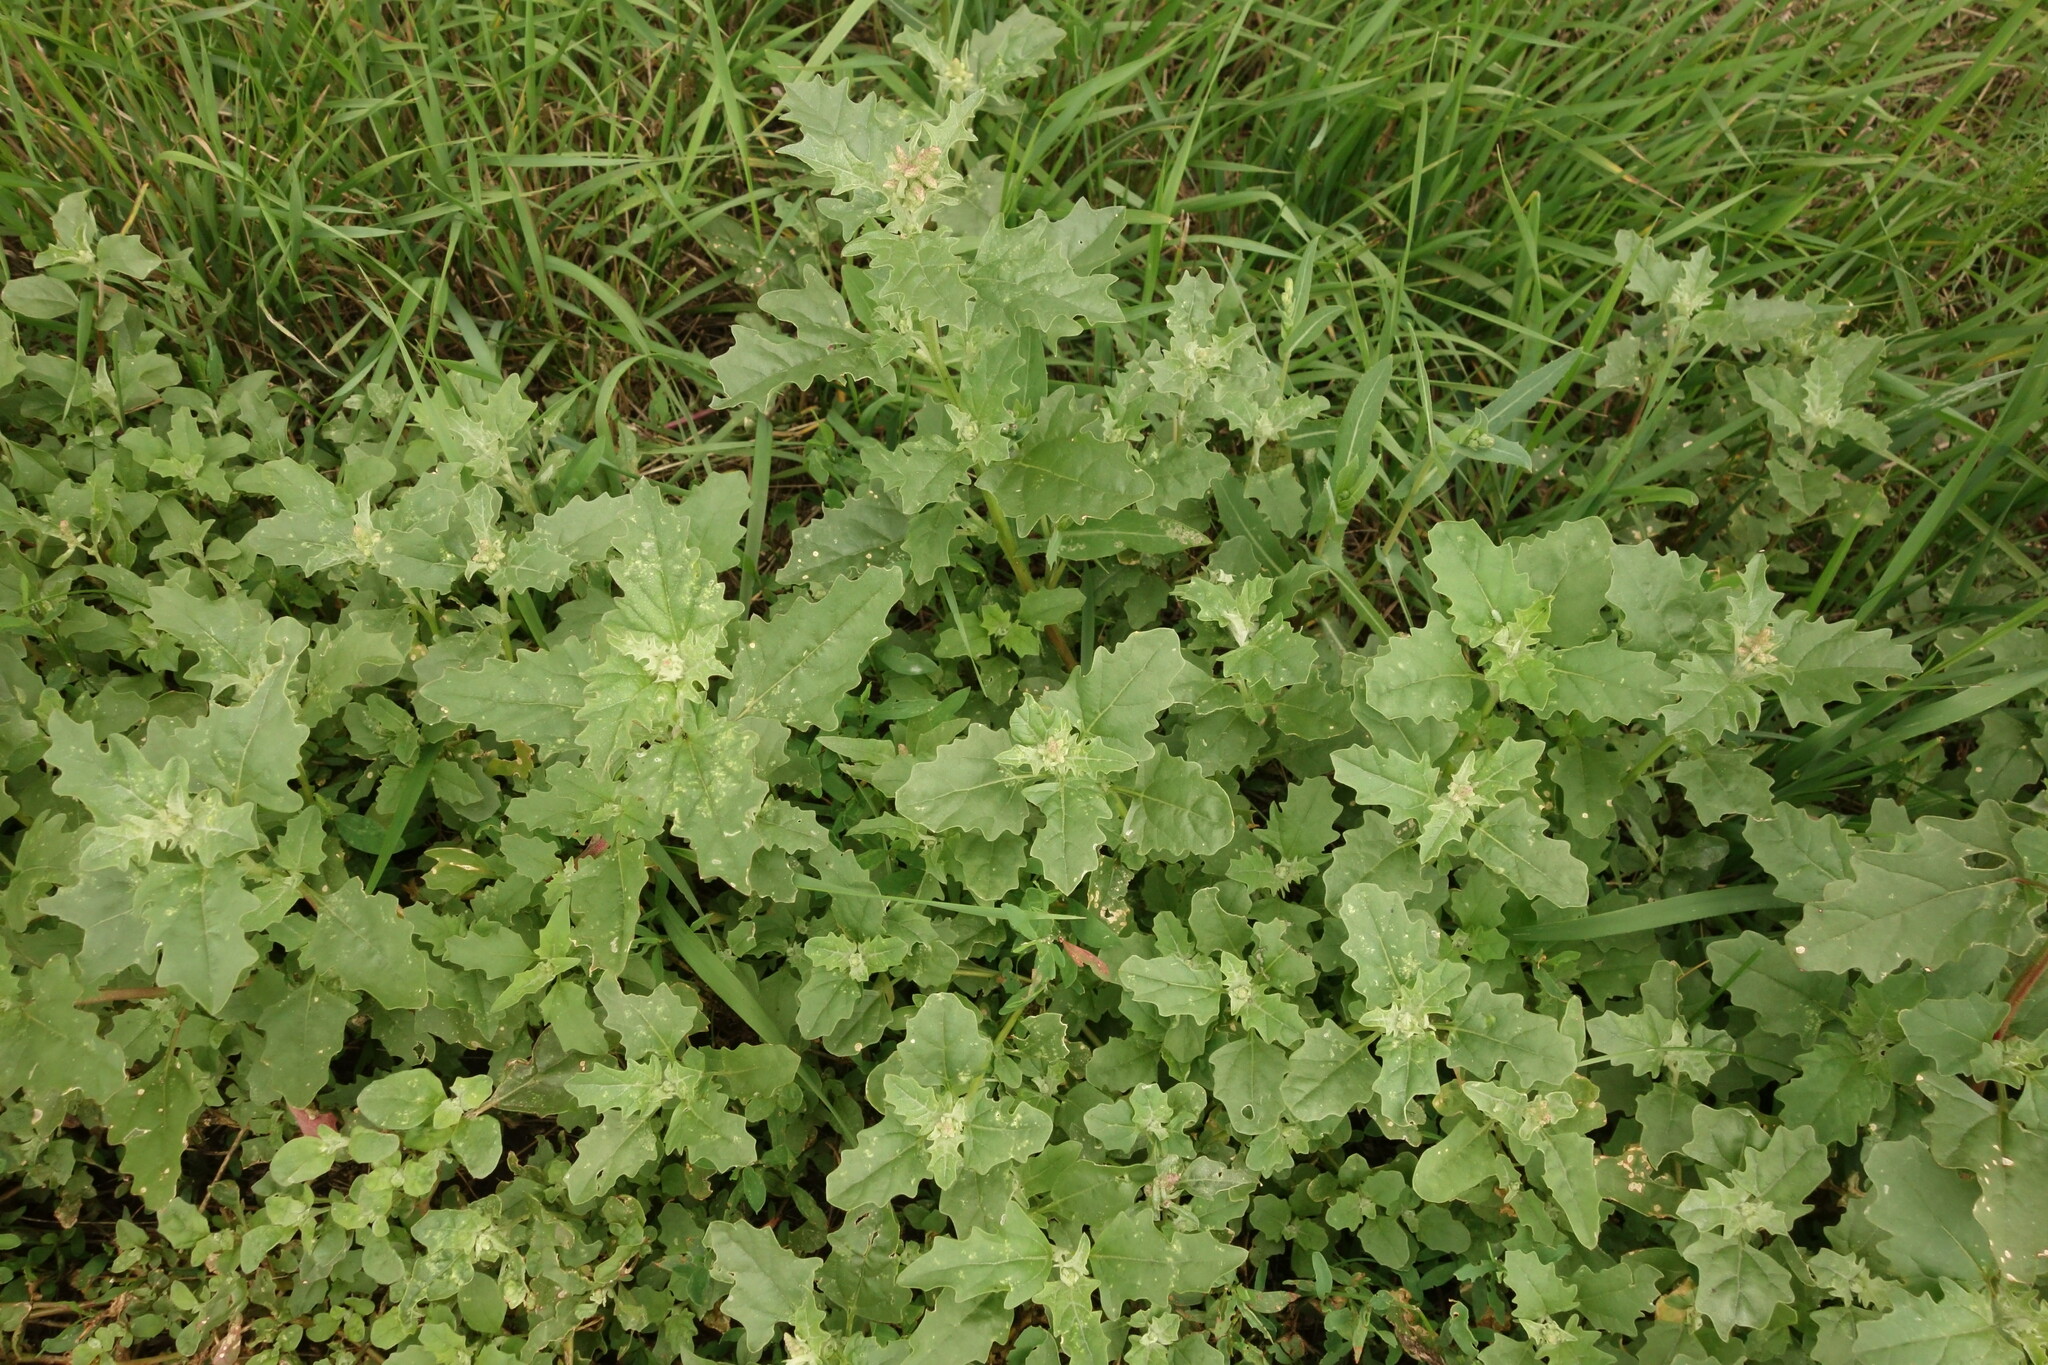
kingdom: Plantae
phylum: Tracheophyta
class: Magnoliopsida
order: Caryophyllales
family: Amaranthaceae
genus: Atriplex
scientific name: Atriplex tatarica
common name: Tatarian orache
